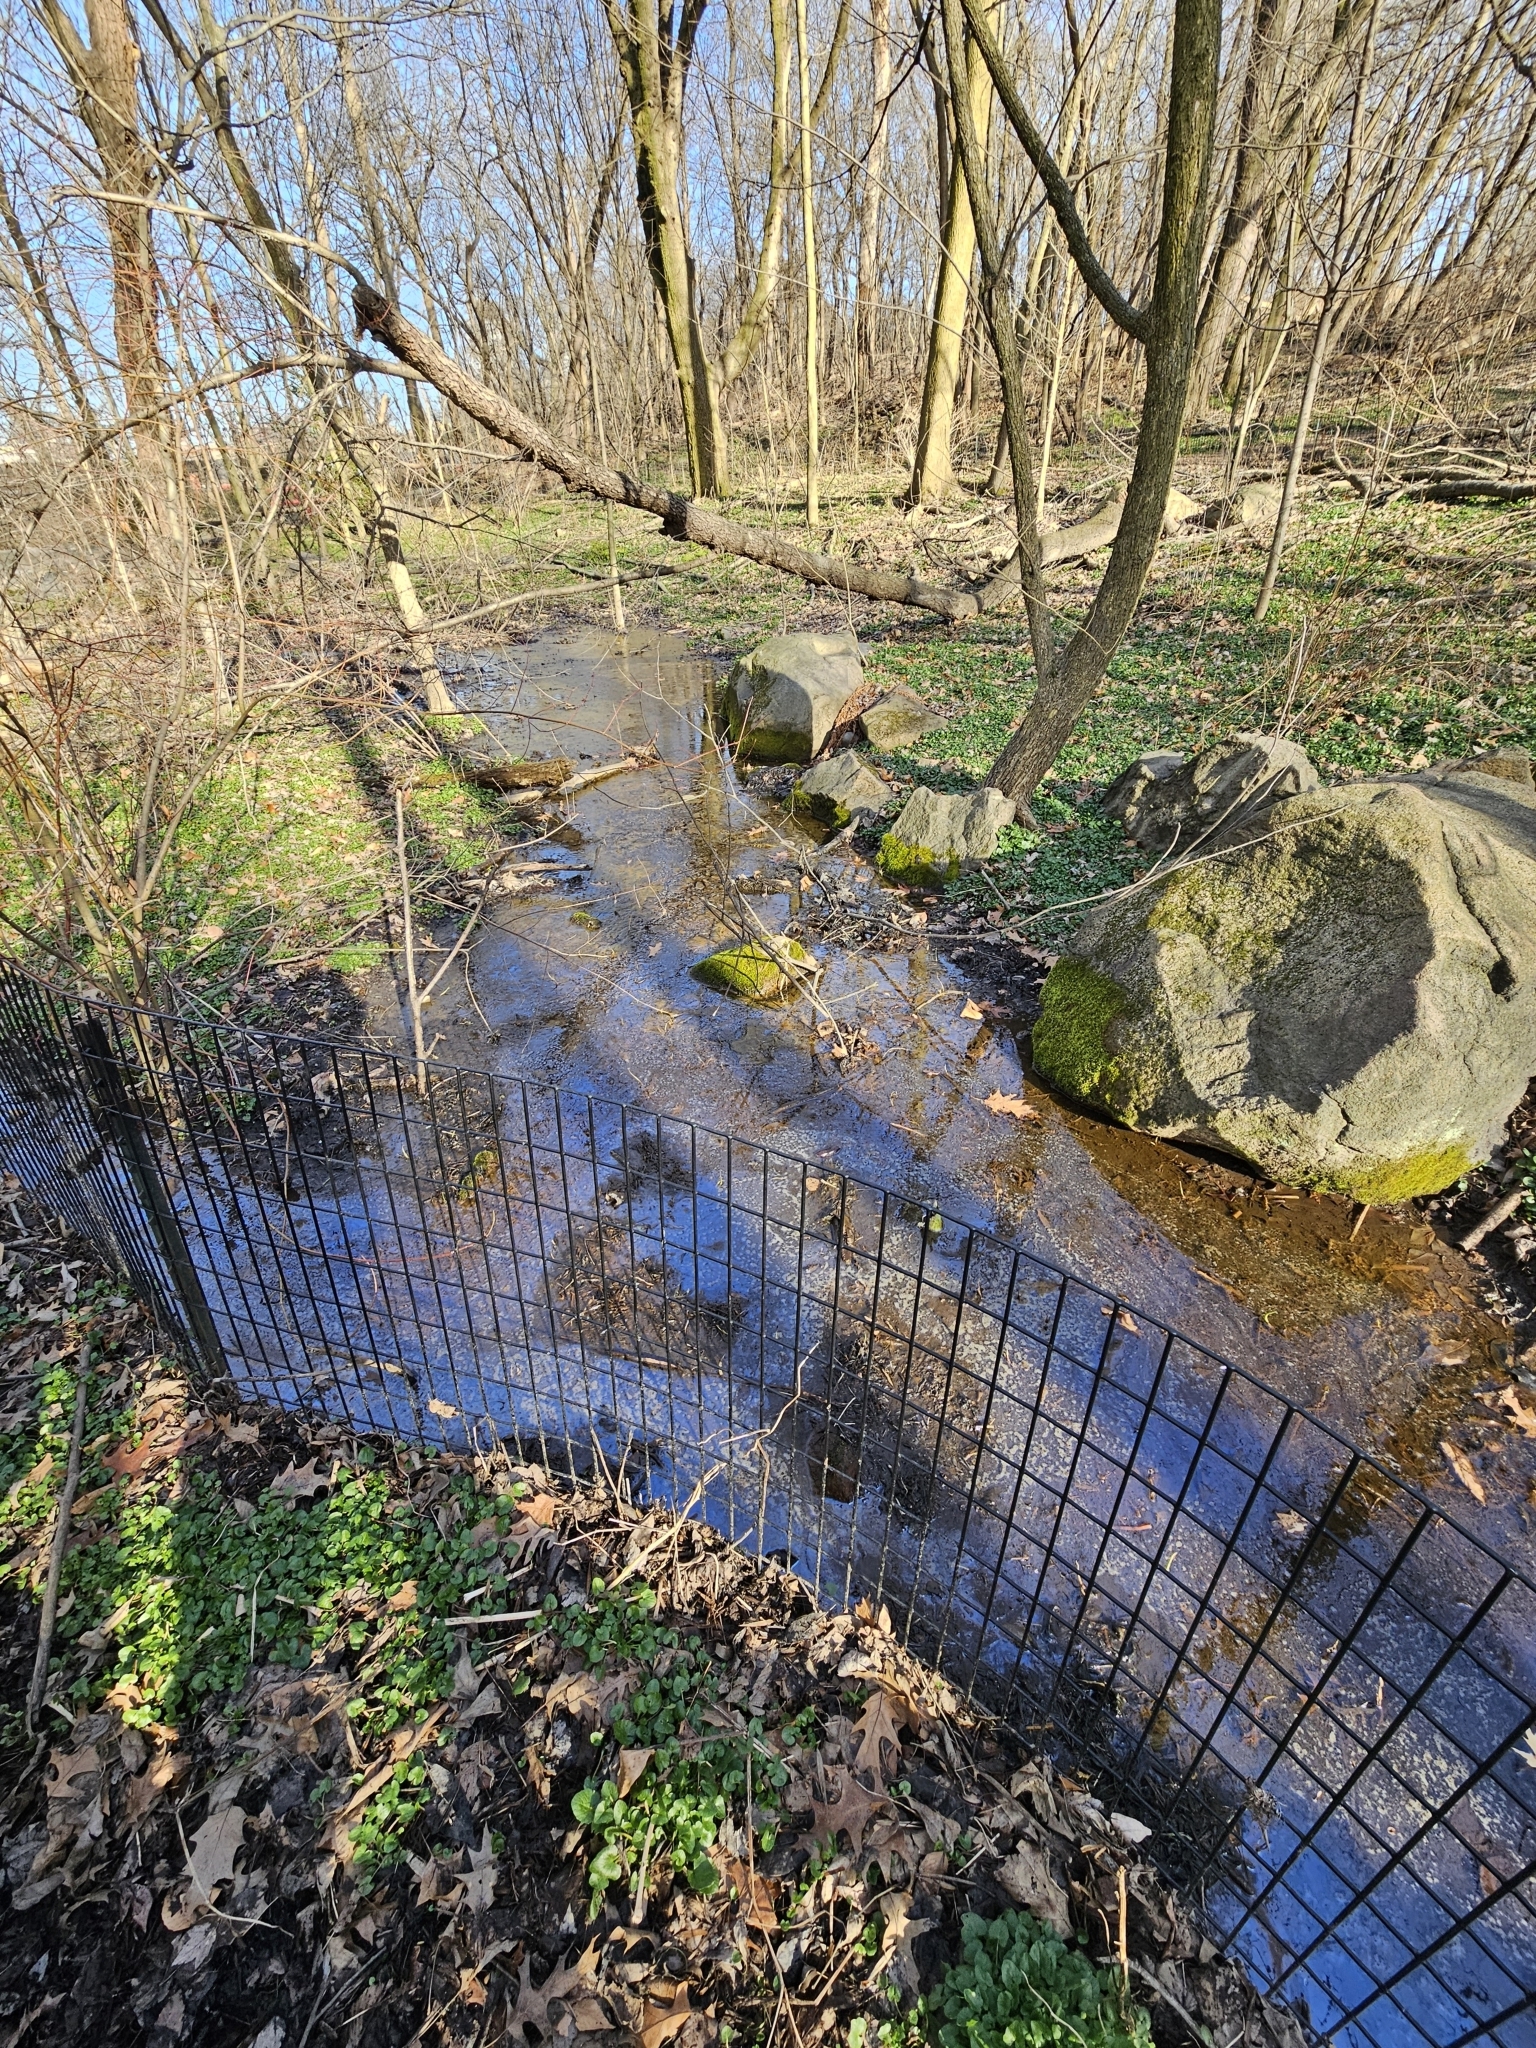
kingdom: Plantae
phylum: Tracheophyta
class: Liliopsida
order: Alismatales
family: Araceae
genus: Symplocarpus
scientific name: Symplocarpus foetidus
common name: Eastern skunk cabbage
